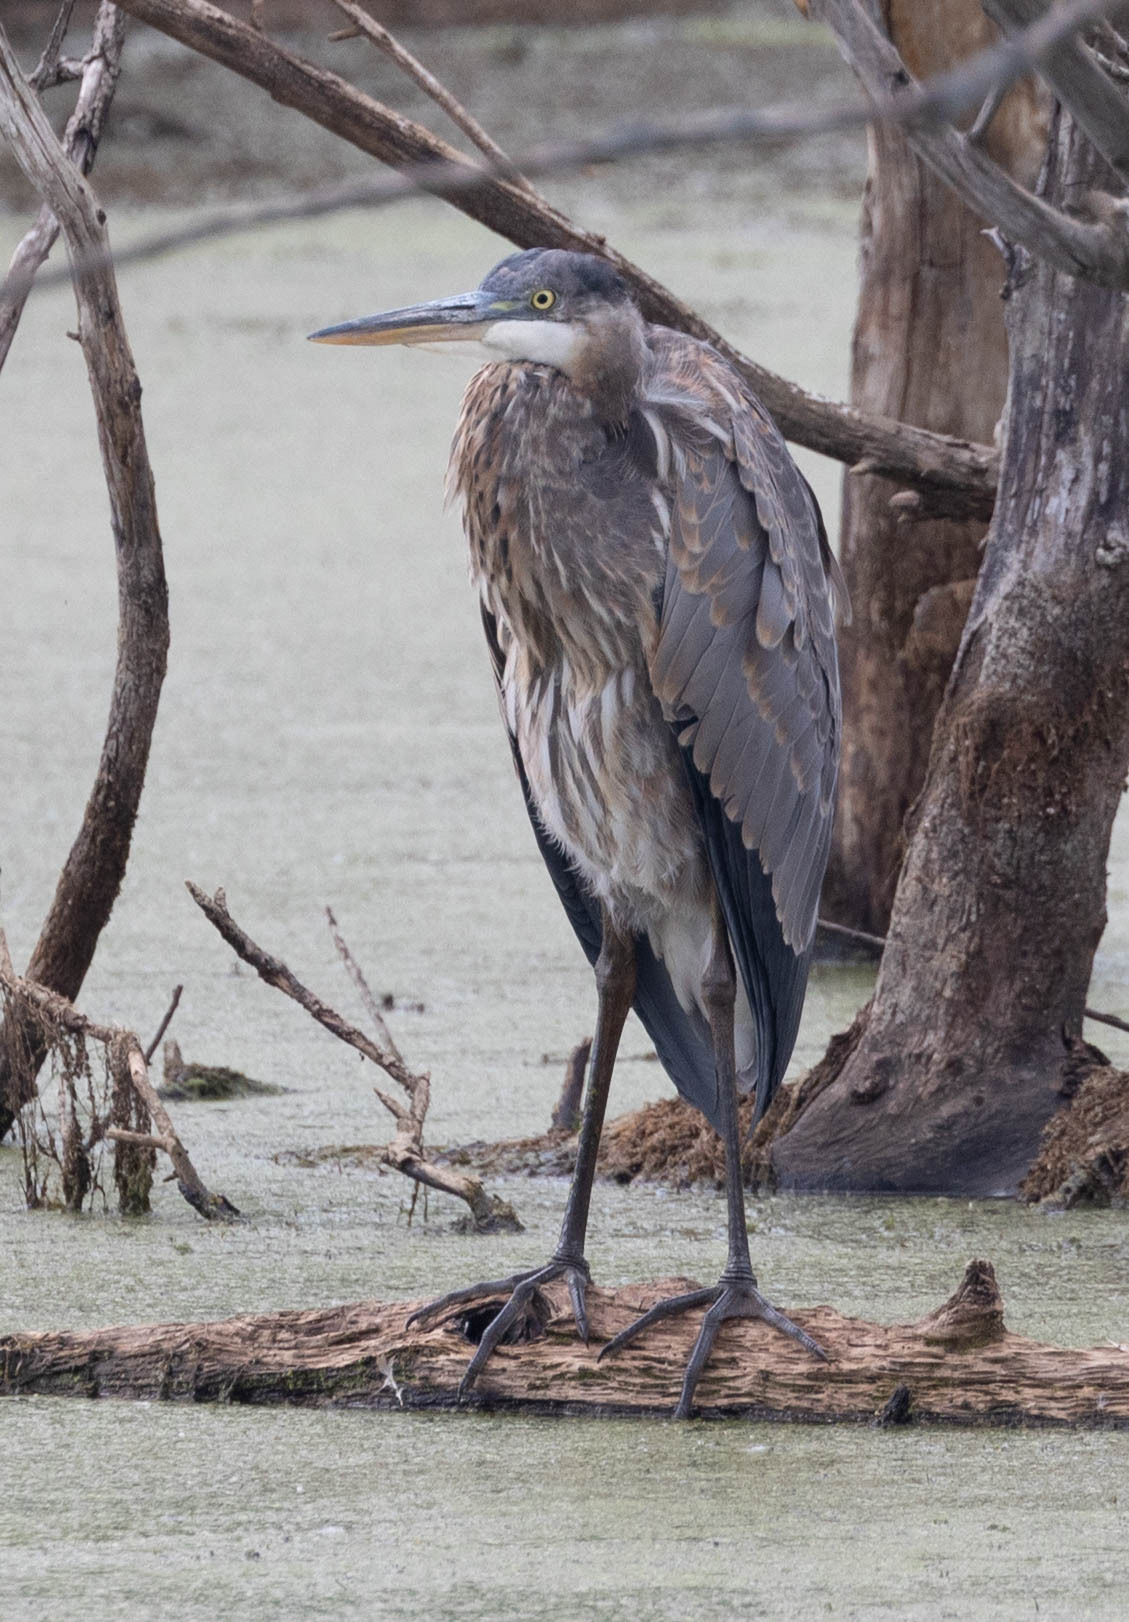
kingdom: Animalia
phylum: Chordata
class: Aves
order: Pelecaniformes
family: Ardeidae
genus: Ardea
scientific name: Ardea herodias
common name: Great blue heron
